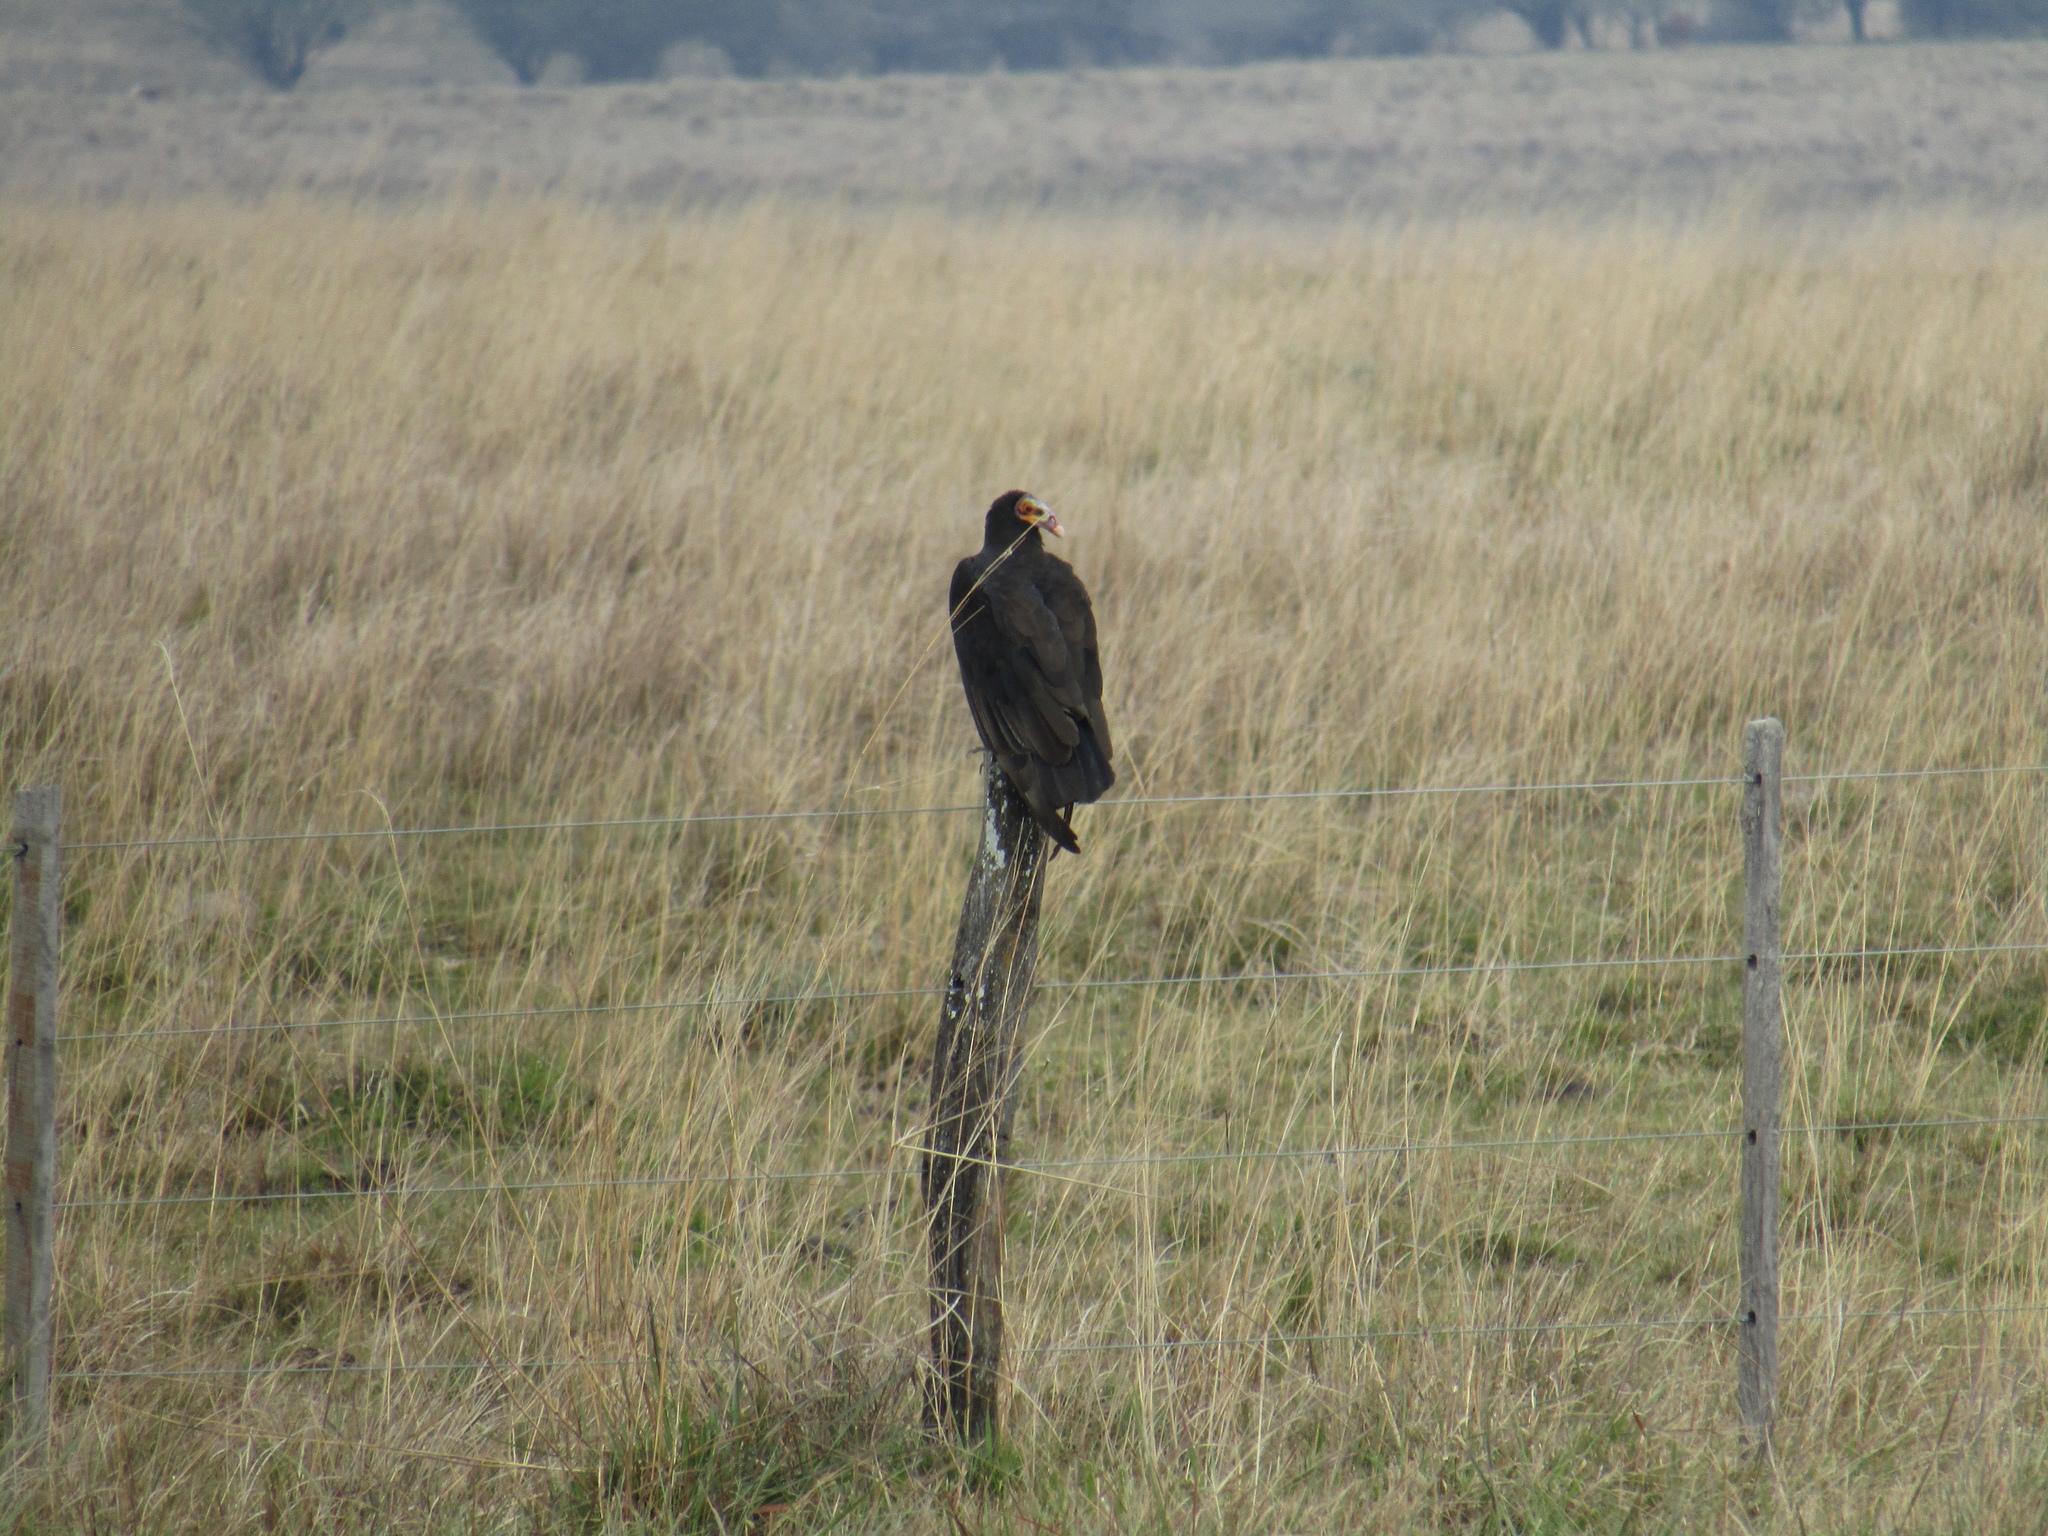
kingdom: Animalia
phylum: Chordata
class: Aves
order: Accipitriformes
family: Cathartidae
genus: Cathartes
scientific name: Cathartes burrovianus
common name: Lesser yellow-headed vulture
